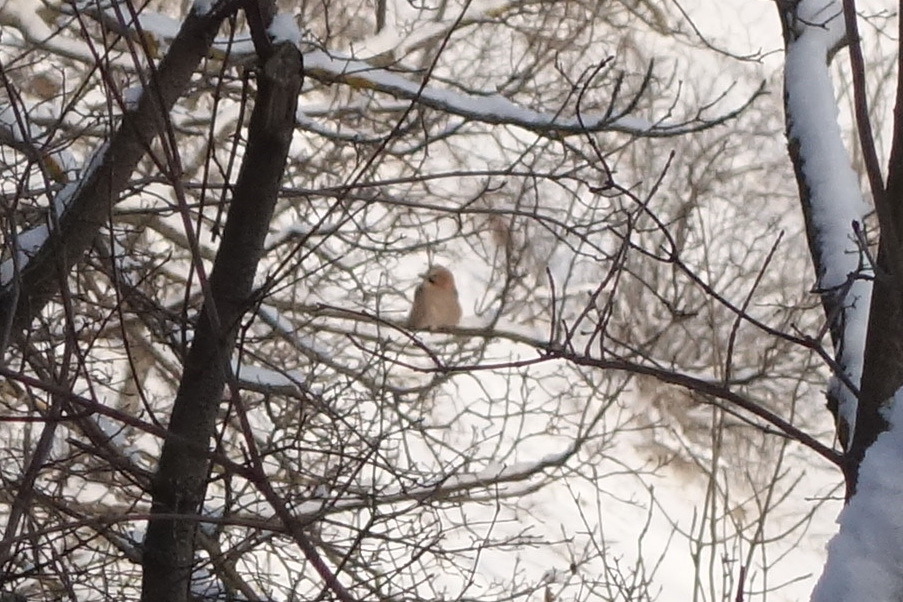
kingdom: Animalia
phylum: Chordata
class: Aves
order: Passeriformes
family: Corvidae
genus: Garrulus
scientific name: Garrulus glandarius
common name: Eurasian jay
